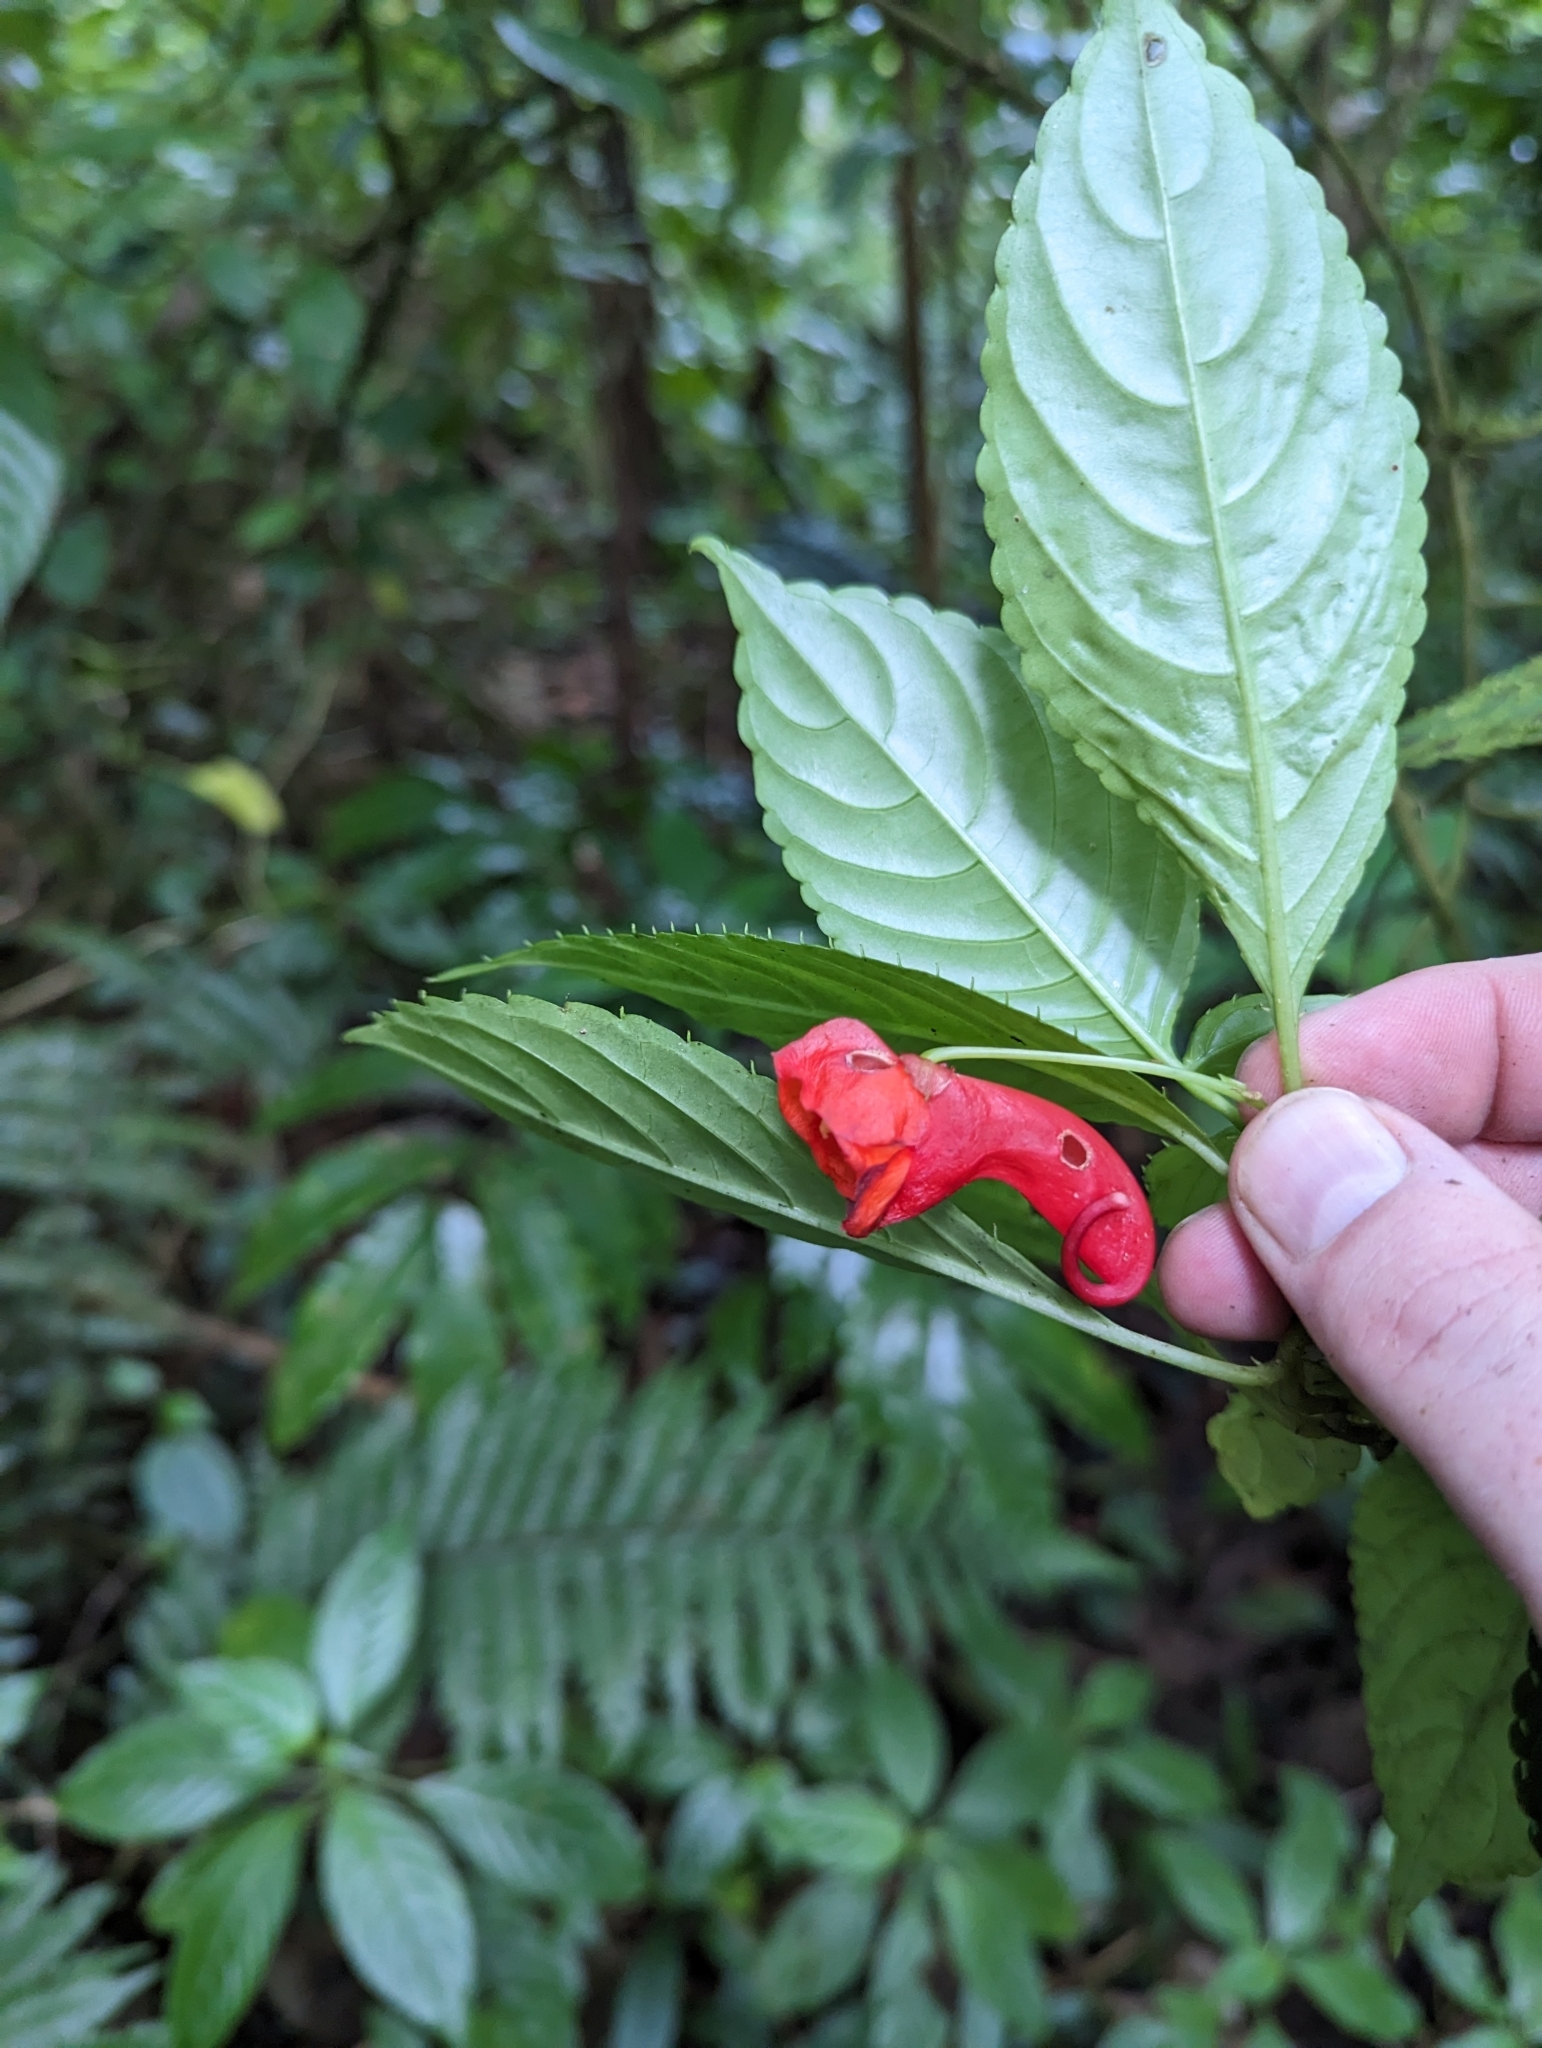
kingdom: Plantae
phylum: Tracheophyta
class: Magnoliopsida
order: Ericales
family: Balsaminaceae
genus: Impatiens
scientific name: Impatiens buccinalis
